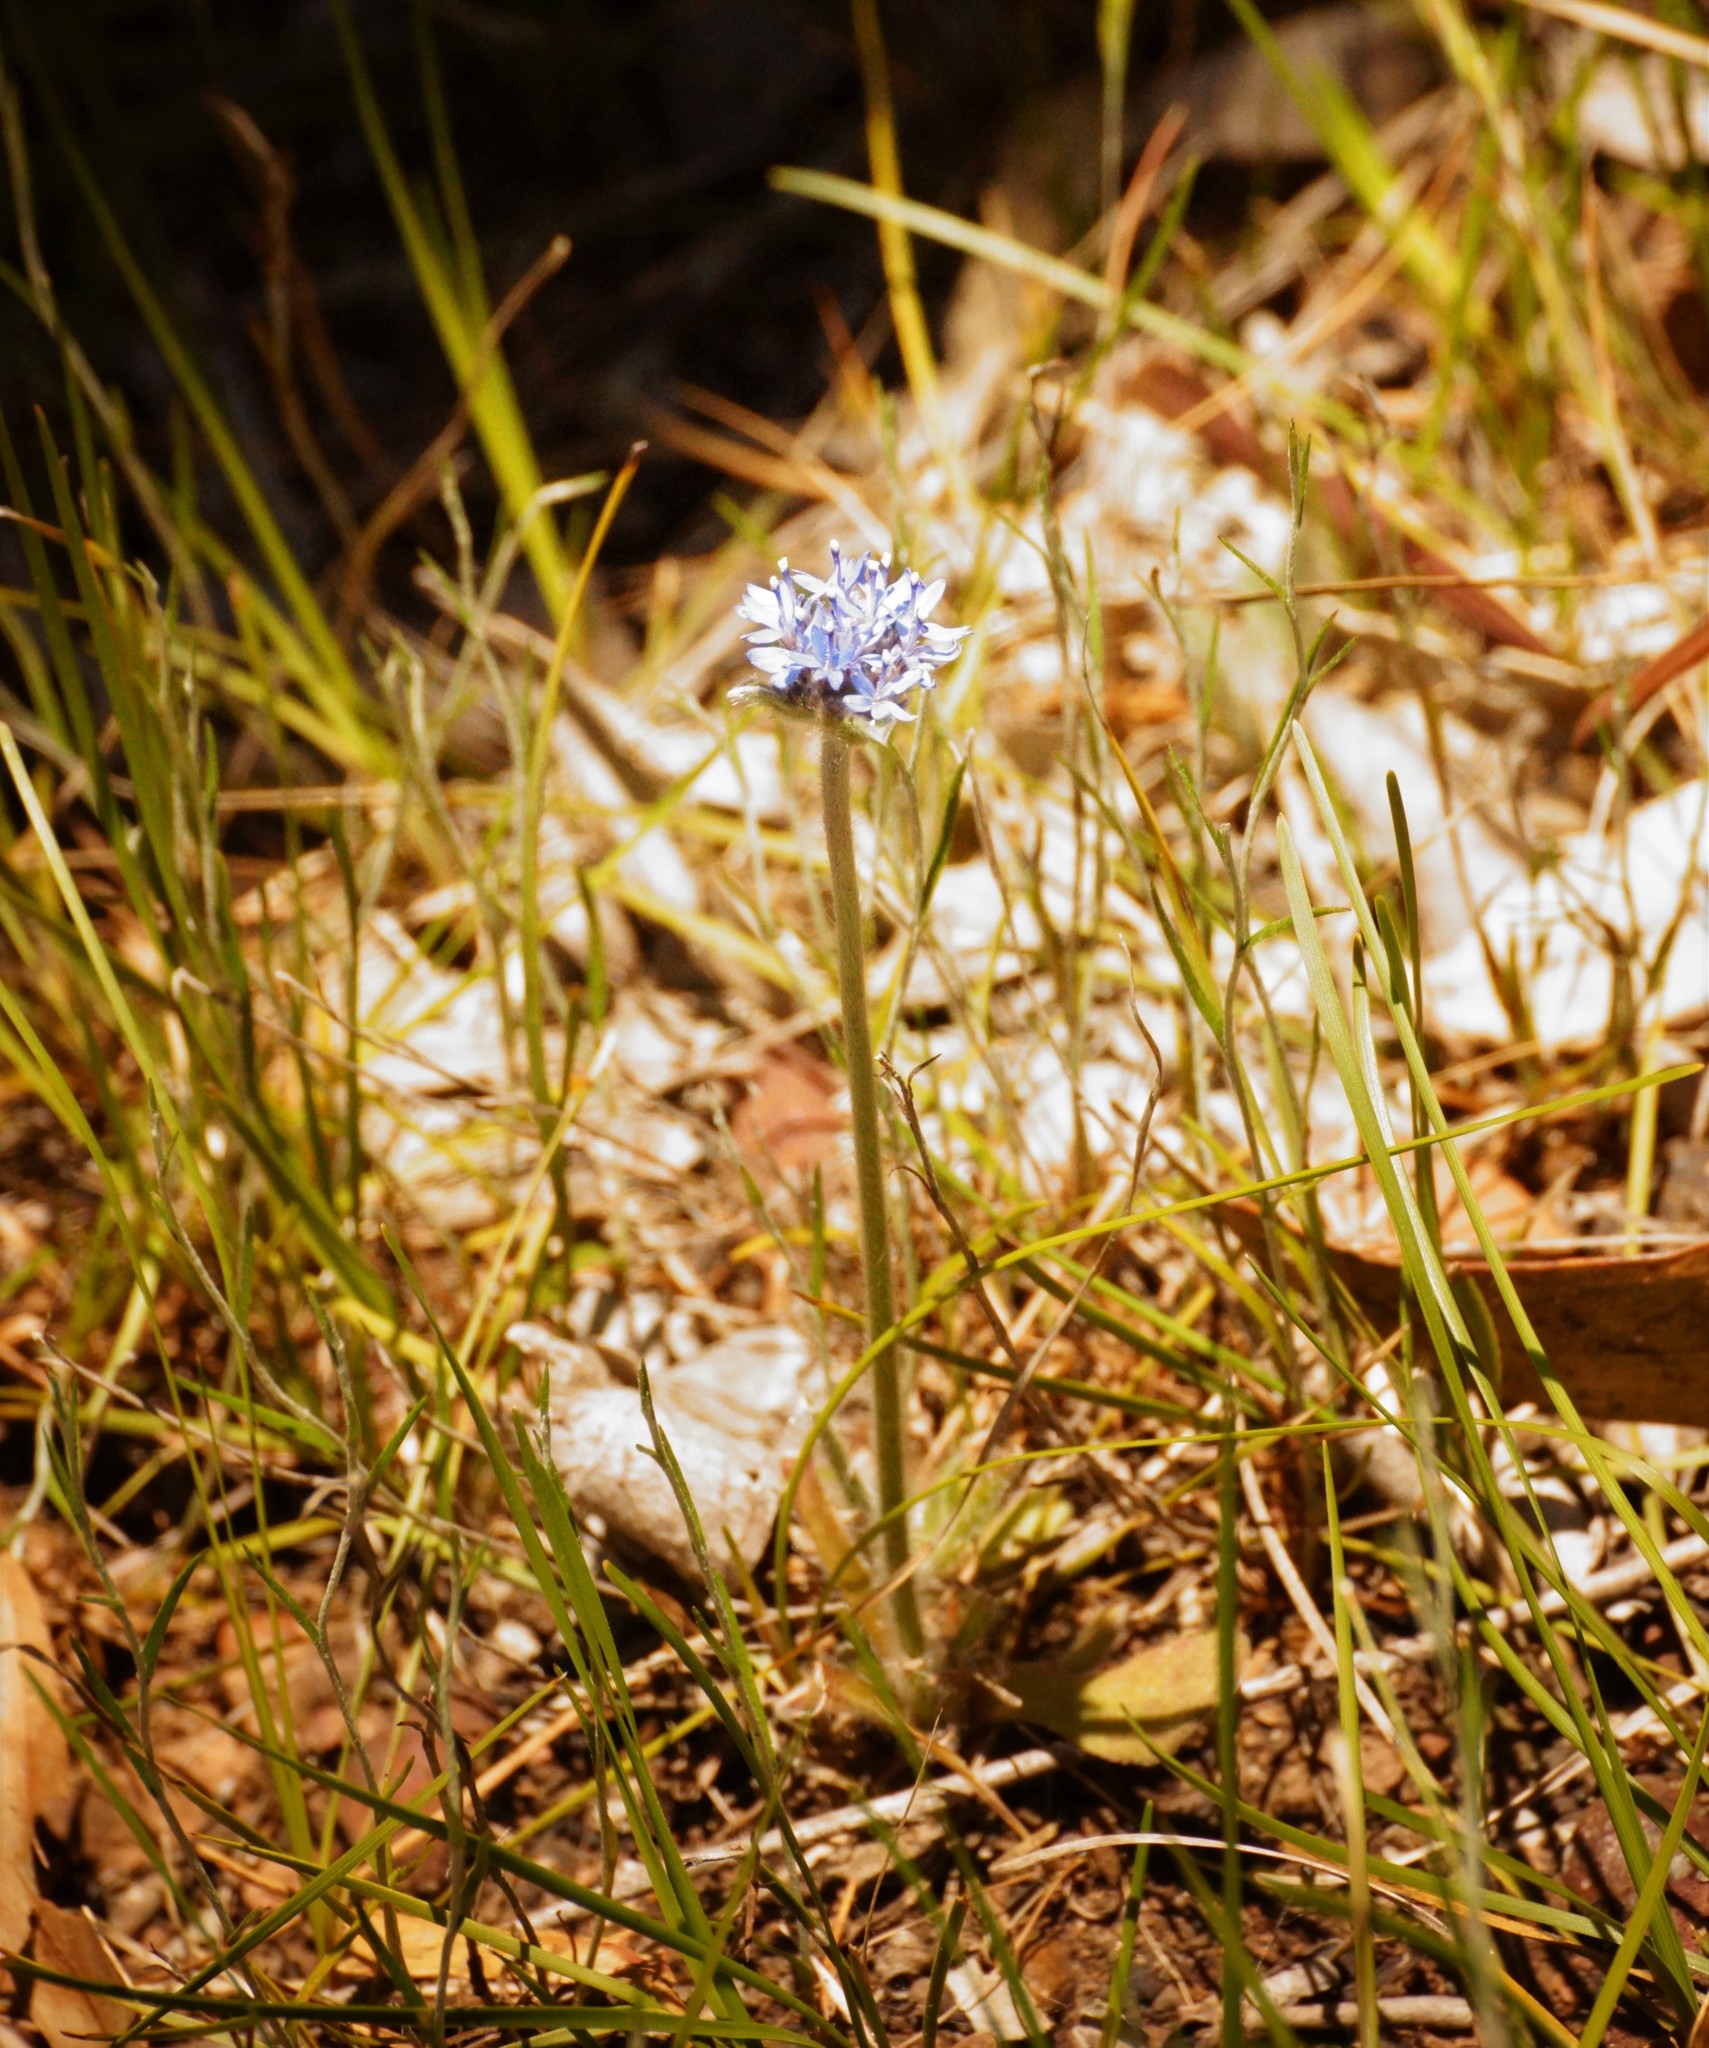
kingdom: Plantae
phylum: Tracheophyta
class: Magnoliopsida
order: Asterales
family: Goodeniaceae
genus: Brunonia
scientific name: Brunonia australis
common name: Blue pincushion
